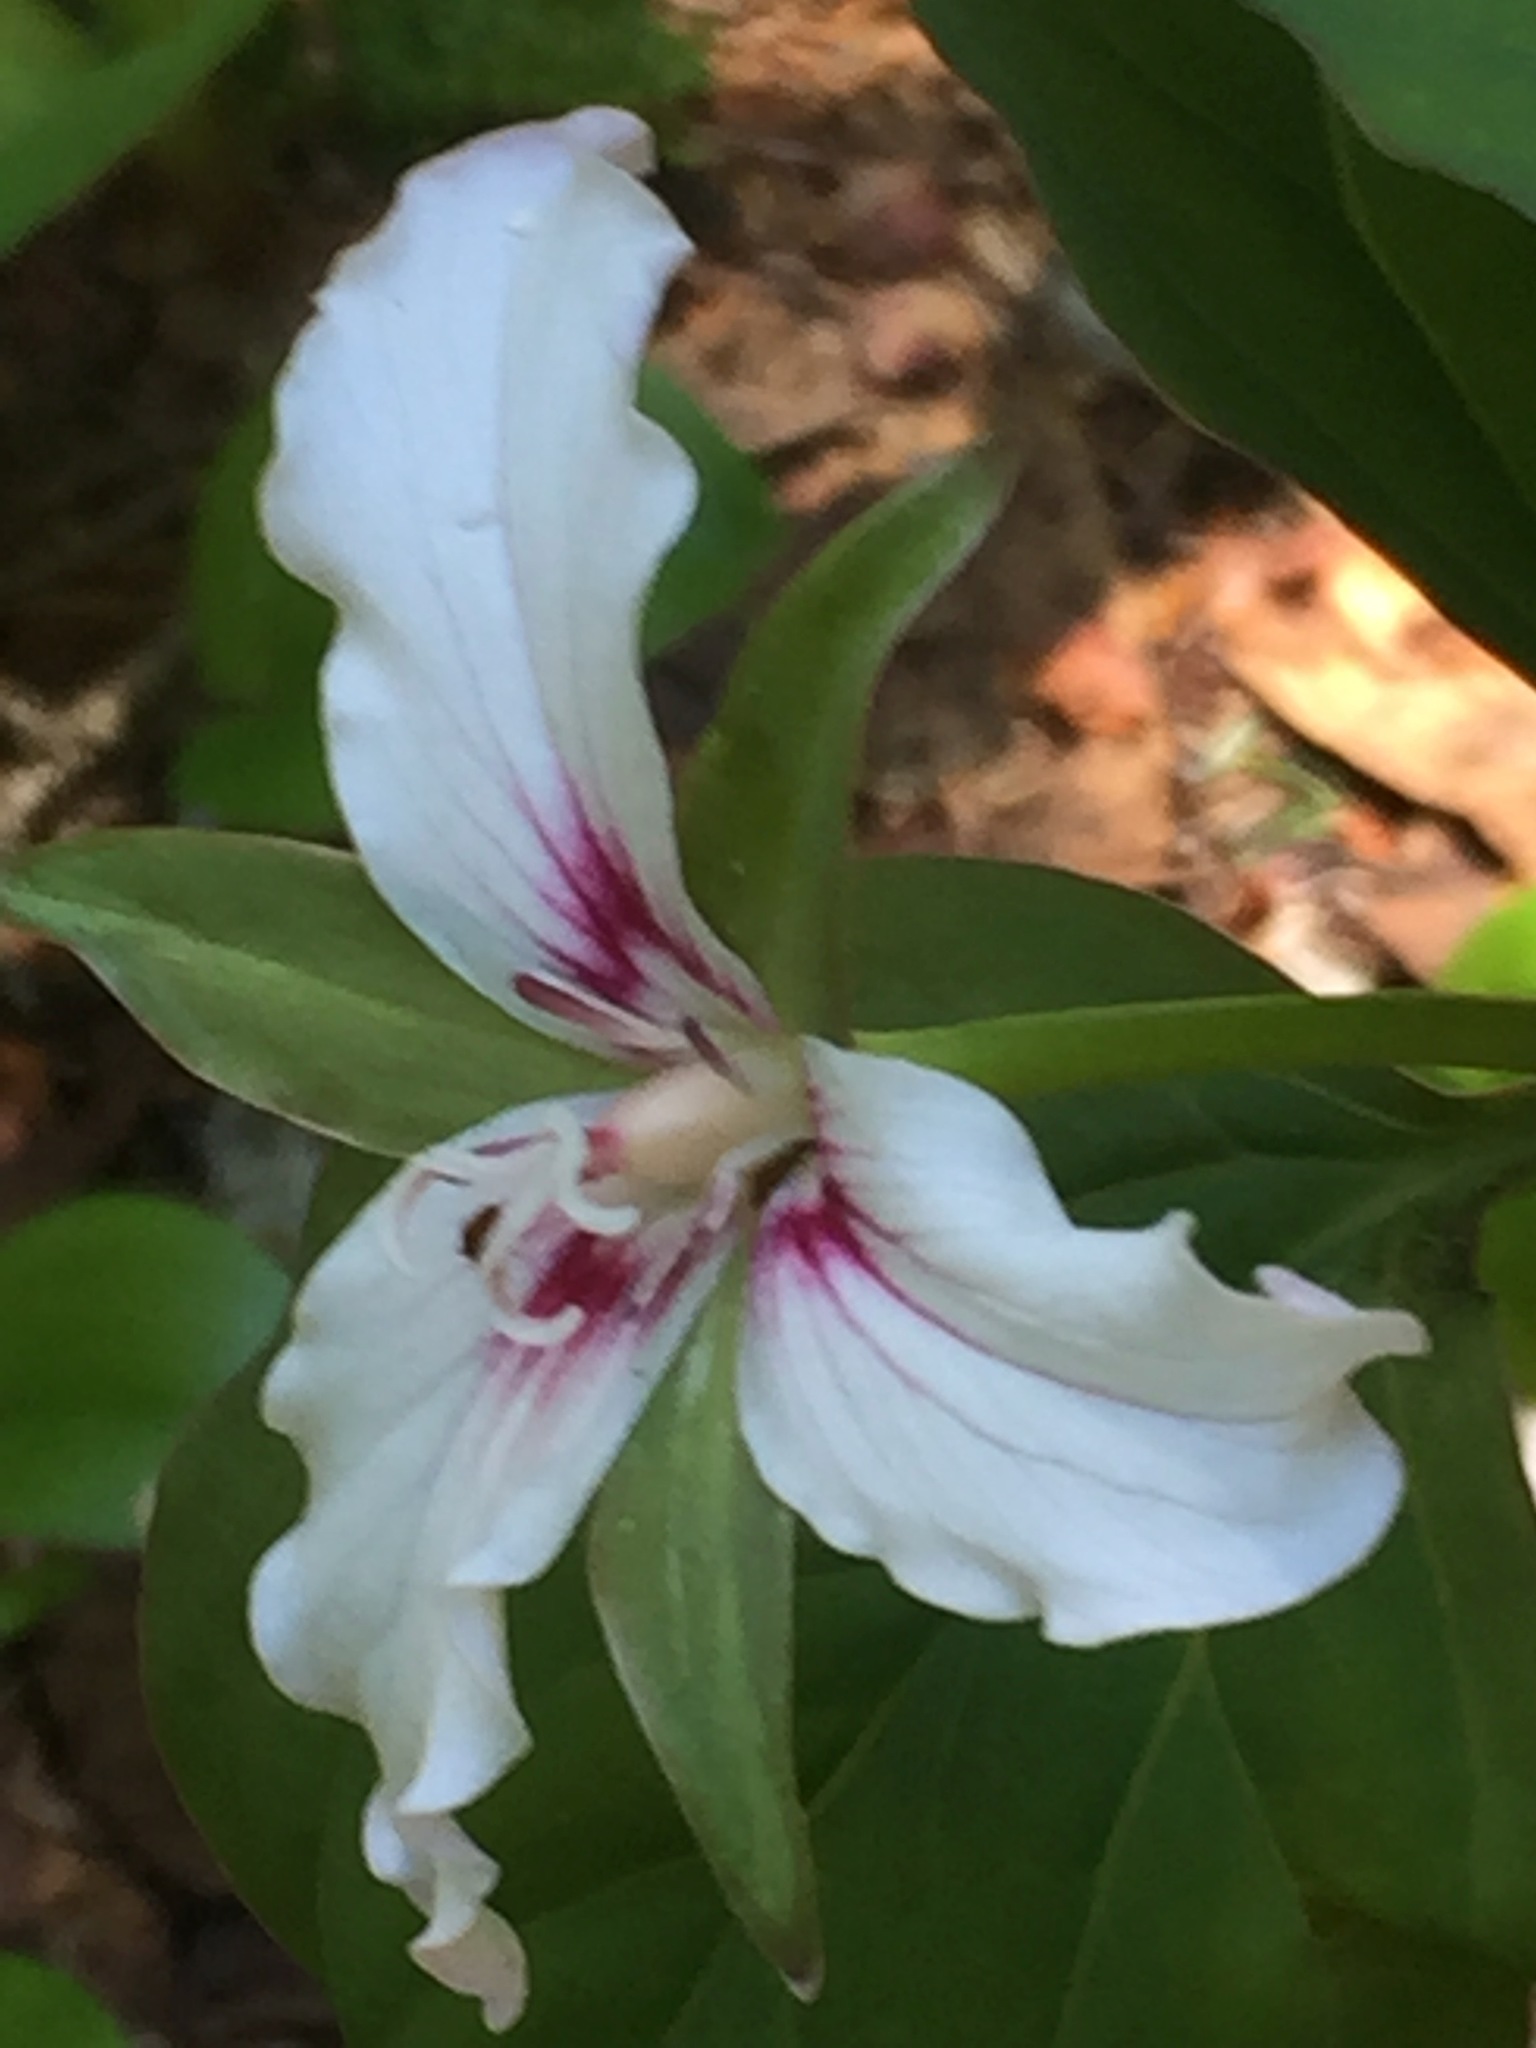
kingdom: Plantae
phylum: Tracheophyta
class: Liliopsida
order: Liliales
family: Melanthiaceae
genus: Trillium
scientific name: Trillium undulatum
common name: Paint trillium
